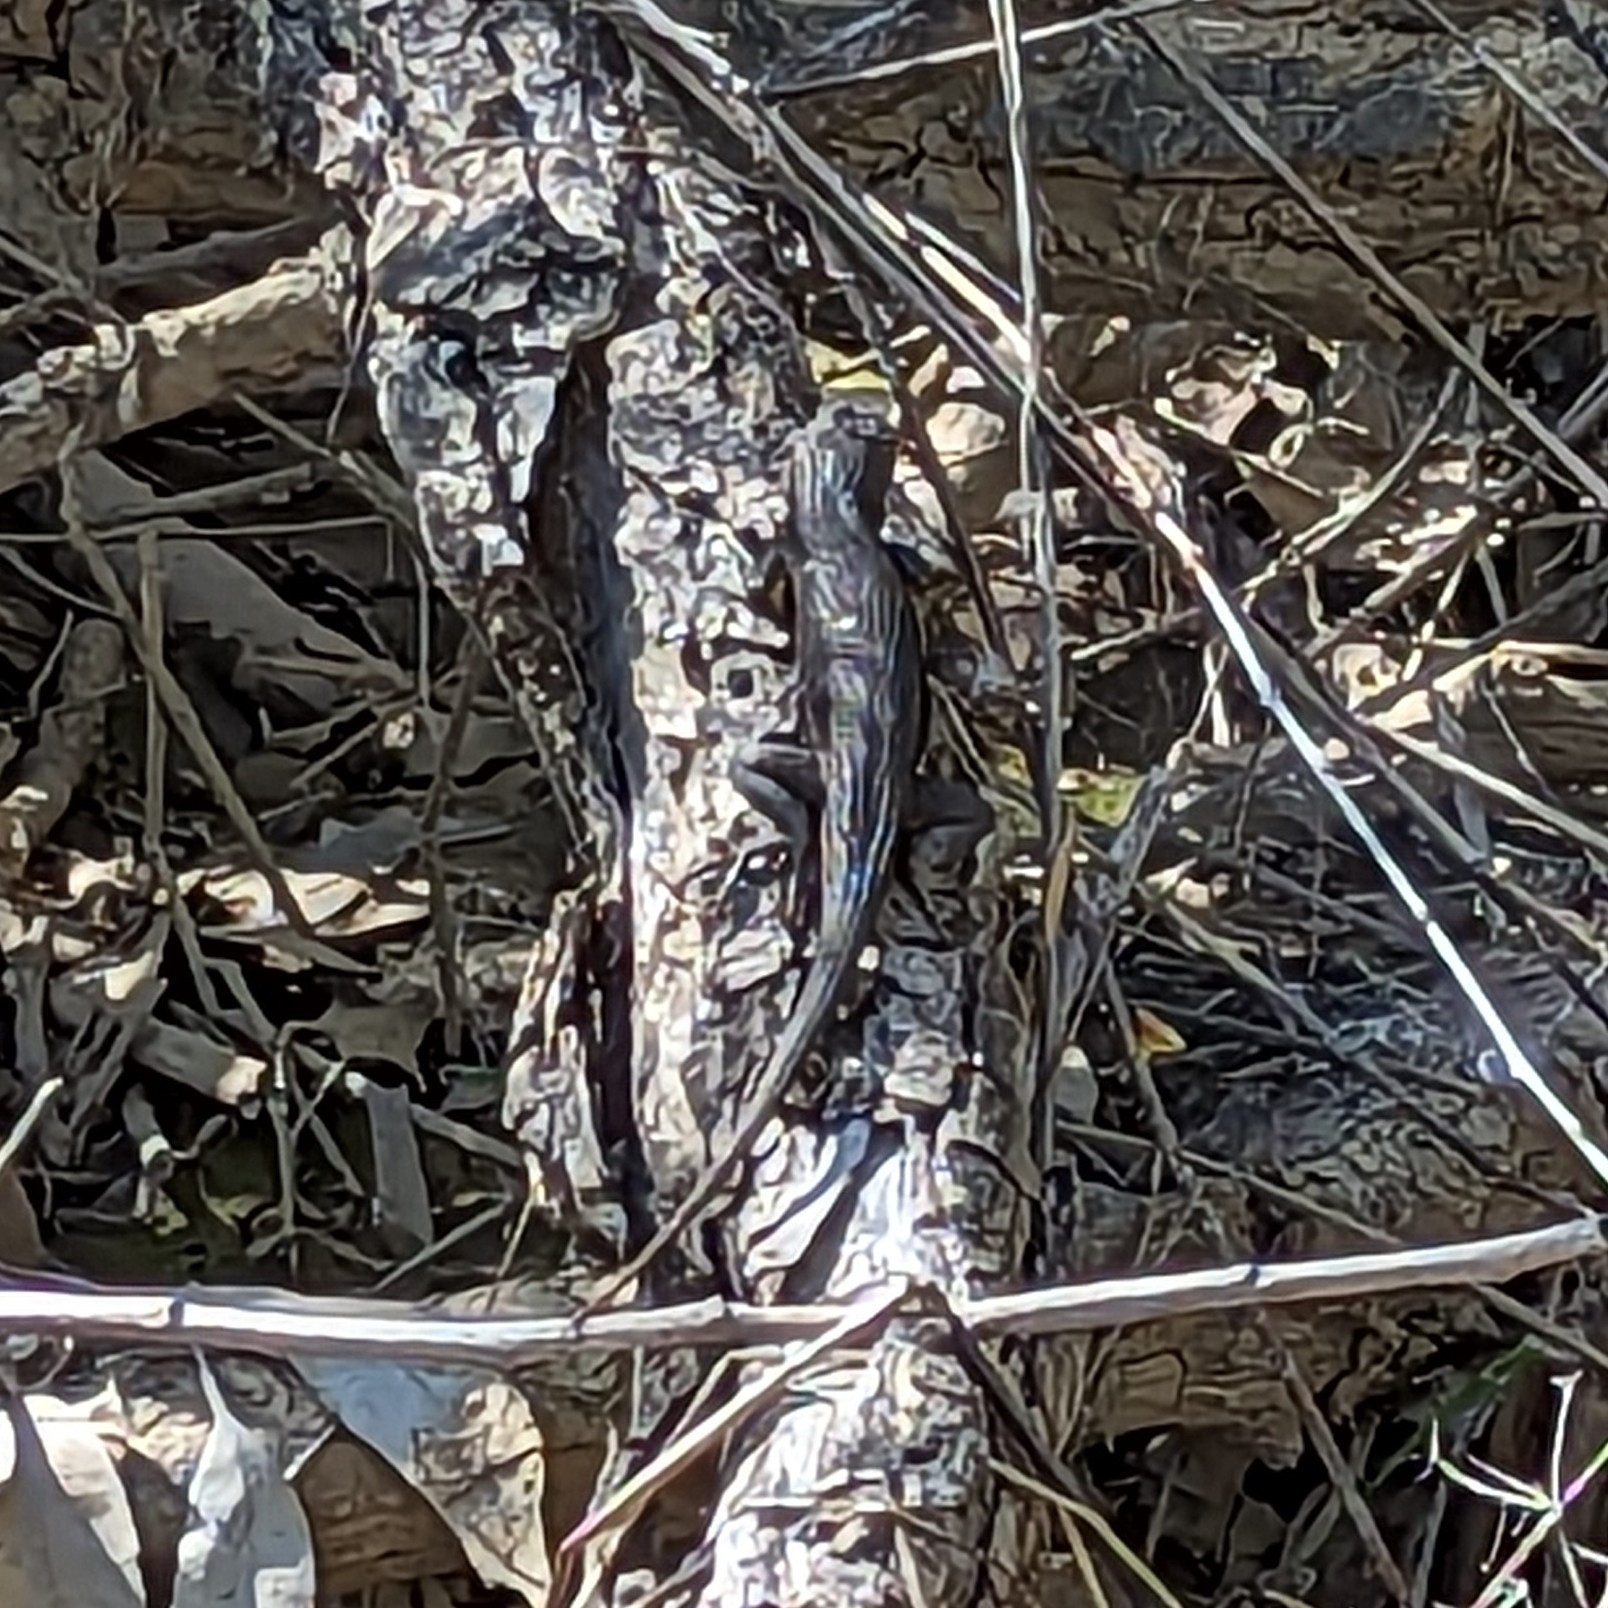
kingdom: Animalia
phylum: Chordata
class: Squamata
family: Phrynosomatidae
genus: Sceloporus
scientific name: Sceloporus occidentalis
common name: Western fence lizard
